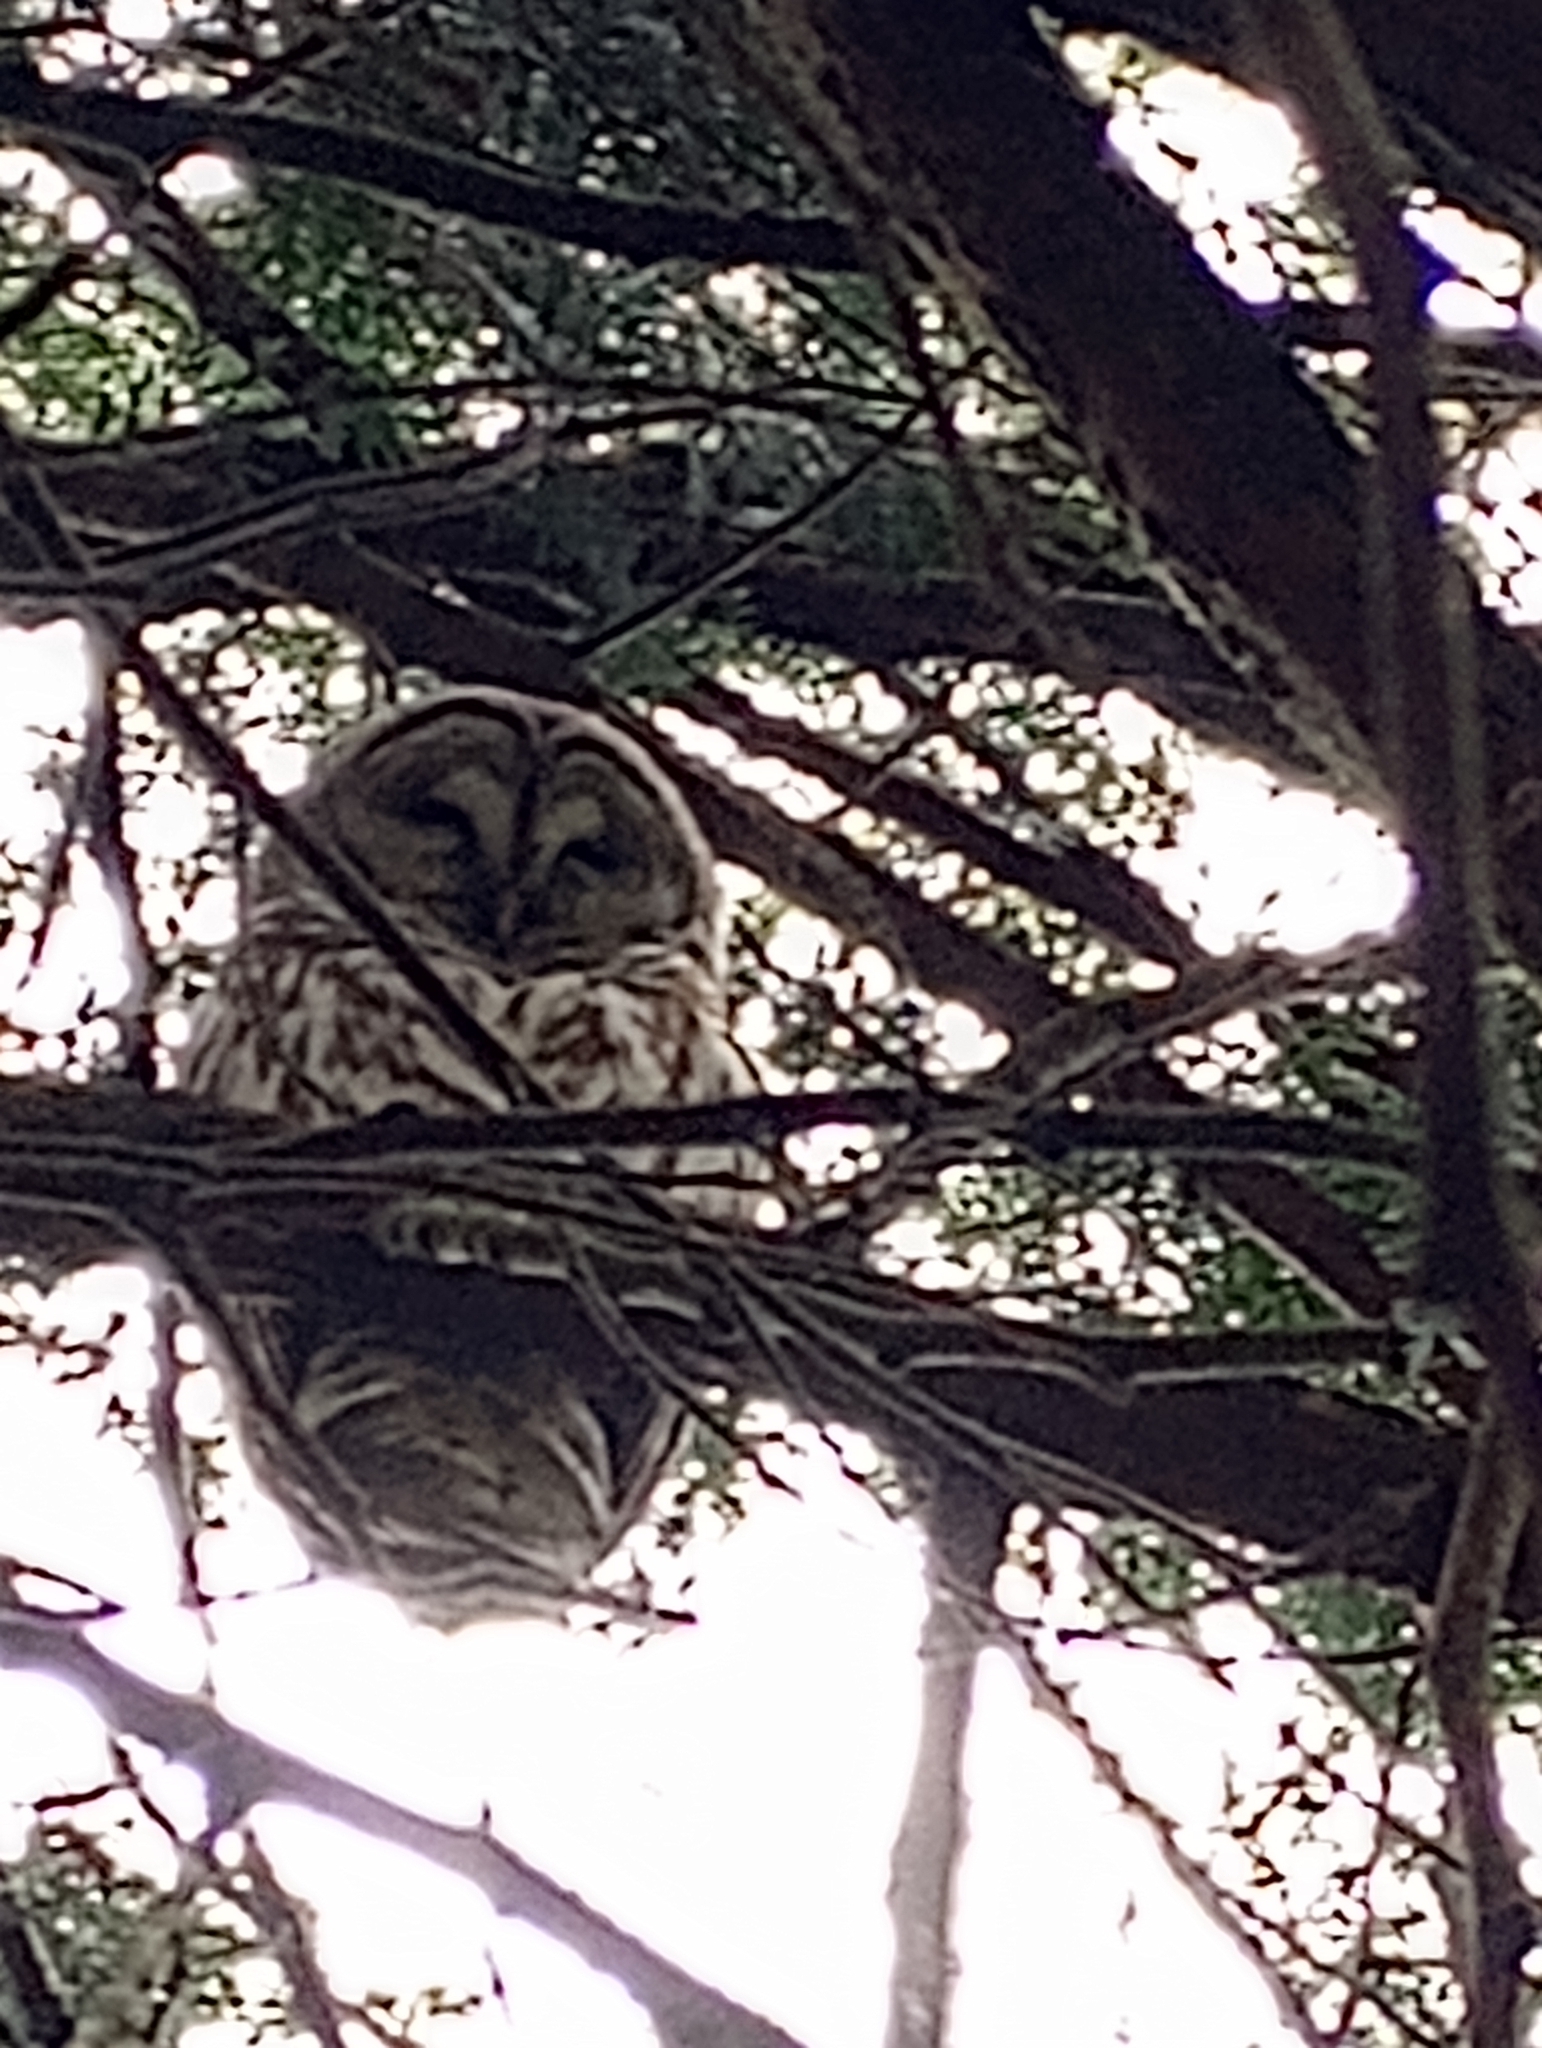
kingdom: Animalia
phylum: Chordata
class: Aves
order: Strigiformes
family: Strigidae
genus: Strix
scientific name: Strix varia
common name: Barred owl
